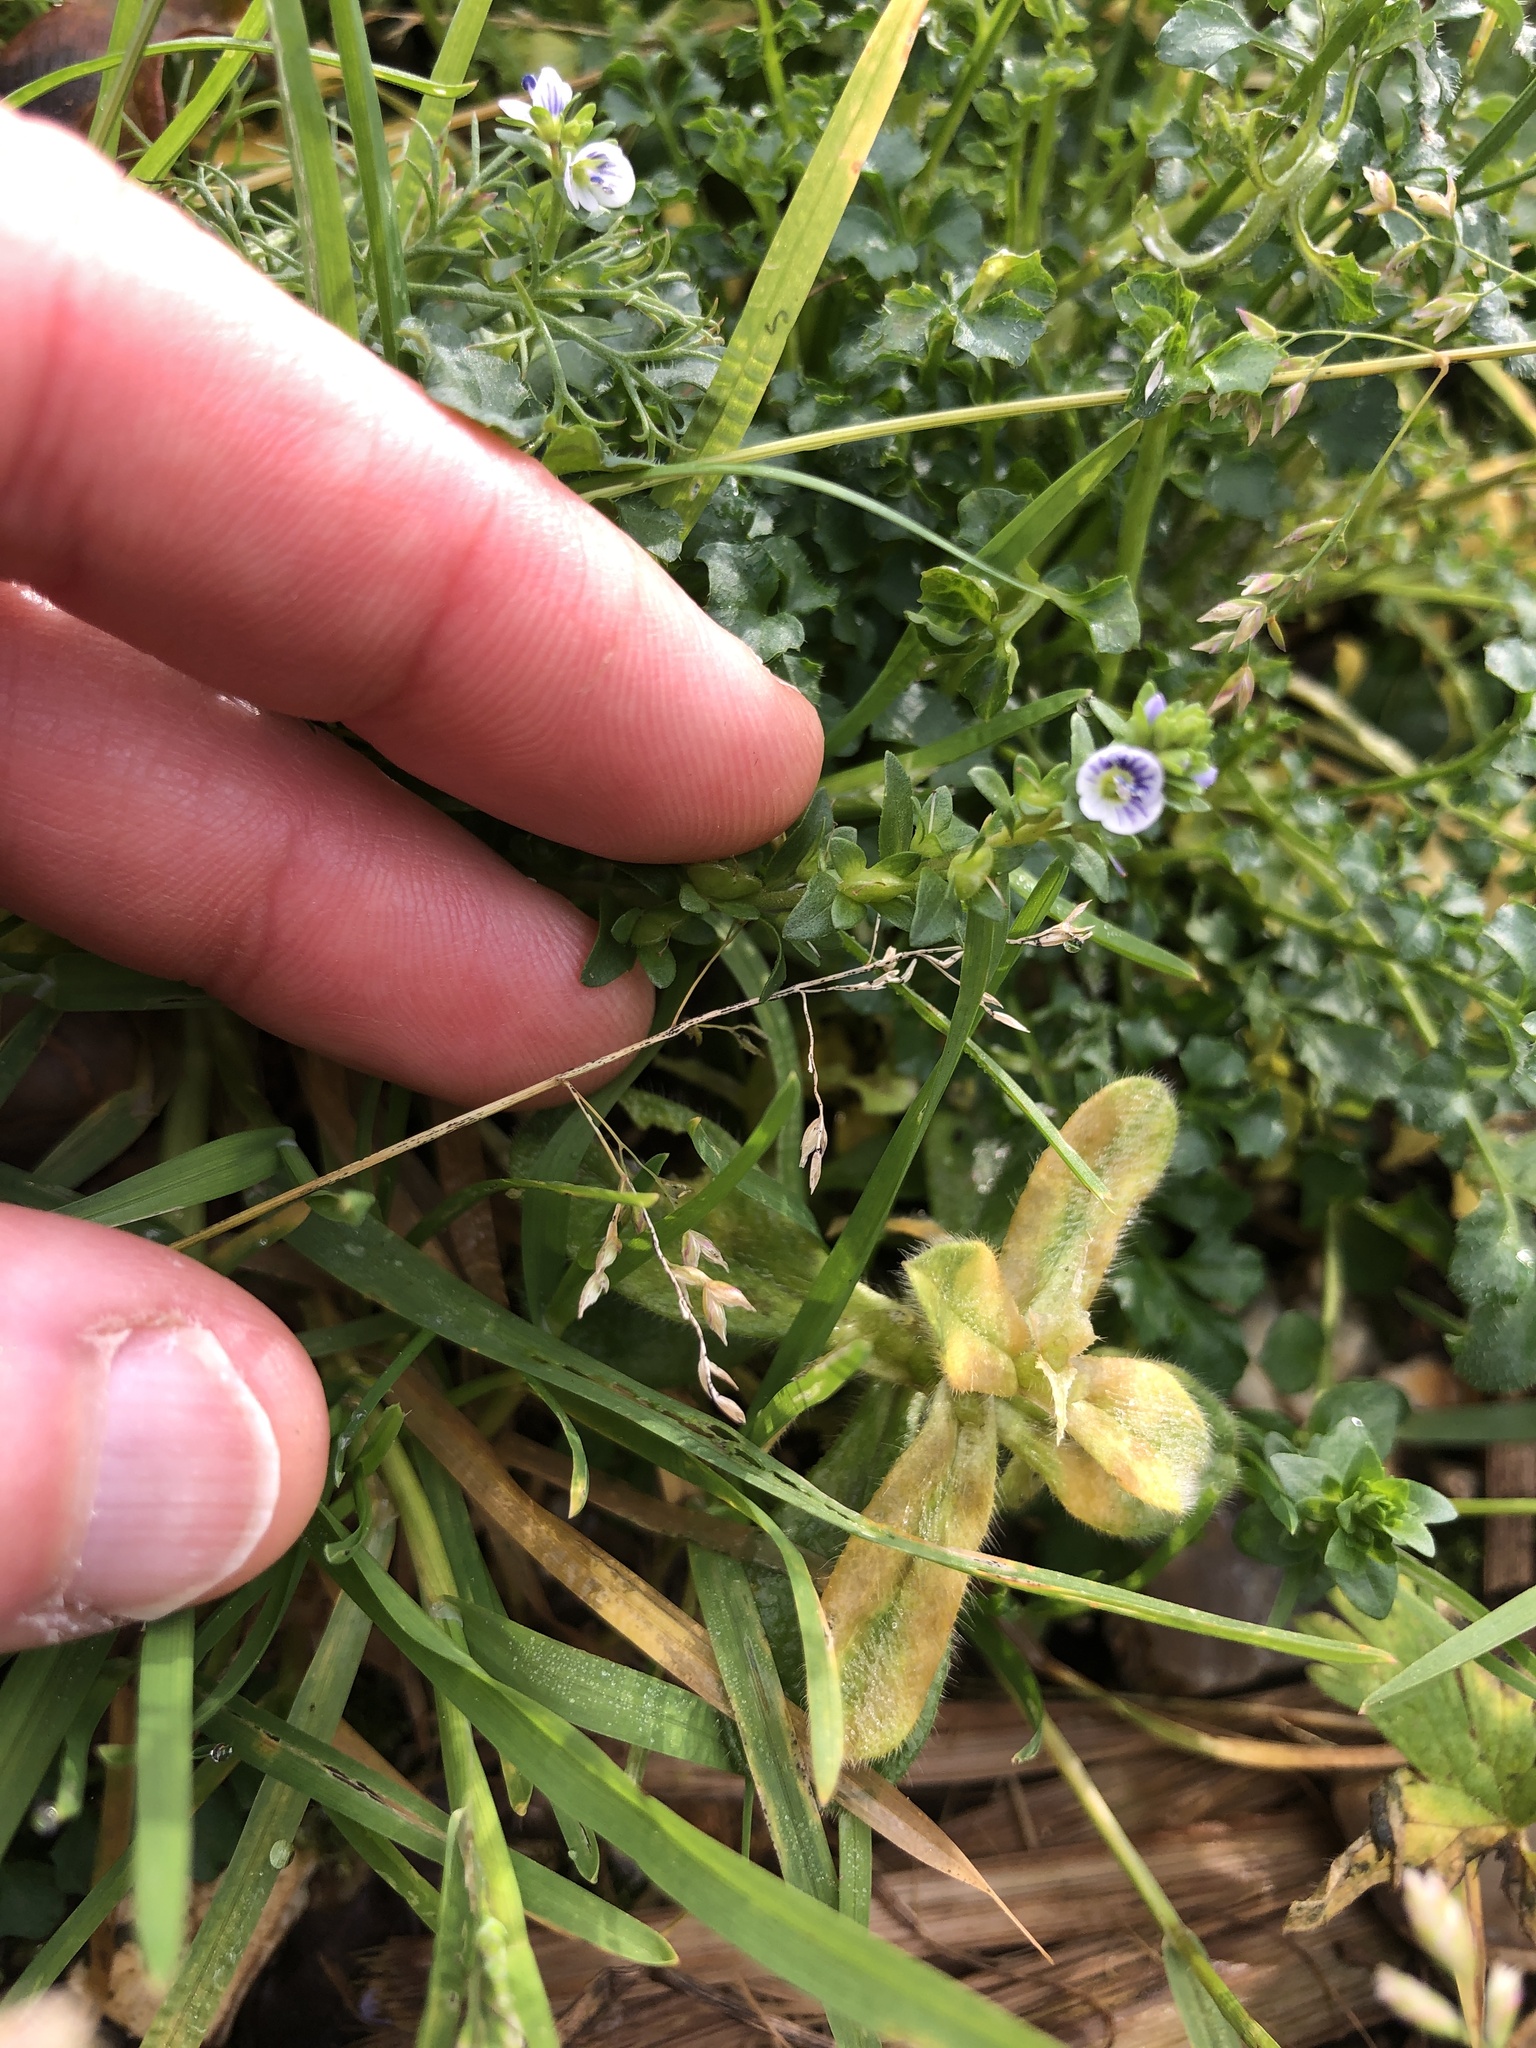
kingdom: Plantae
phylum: Tracheophyta
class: Magnoliopsida
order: Lamiales
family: Plantaginaceae
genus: Veronica
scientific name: Veronica serpyllifolia
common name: Thyme-leaved speedwell
